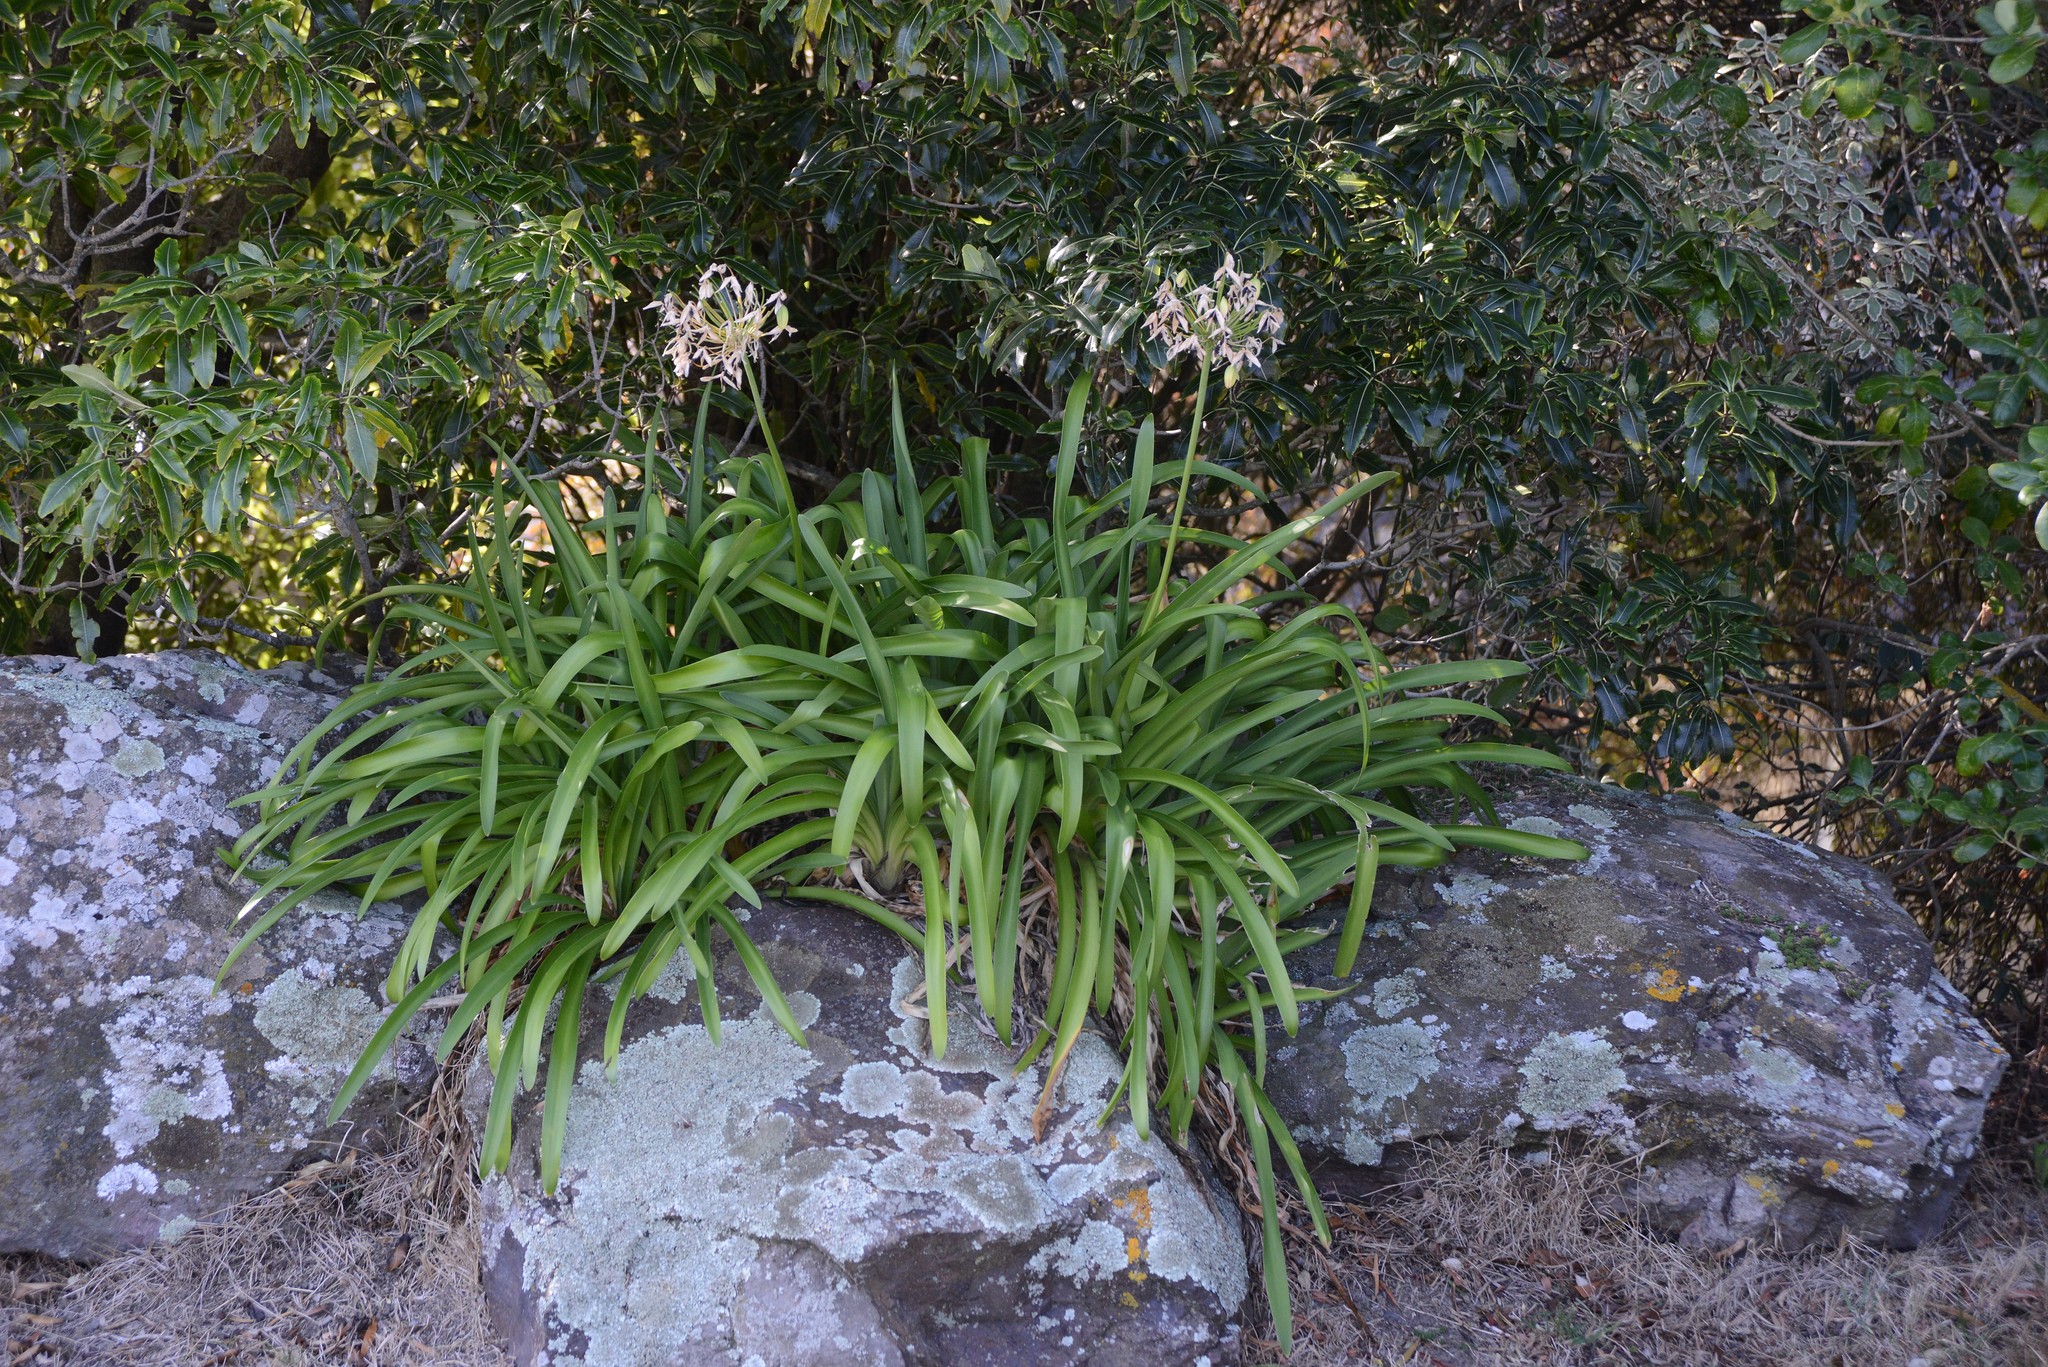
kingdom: Plantae
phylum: Tracheophyta
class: Liliopsida
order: Asparagales
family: Amaryllidaceae
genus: Agapanthus
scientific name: Agapanthus praecox
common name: African-lily
